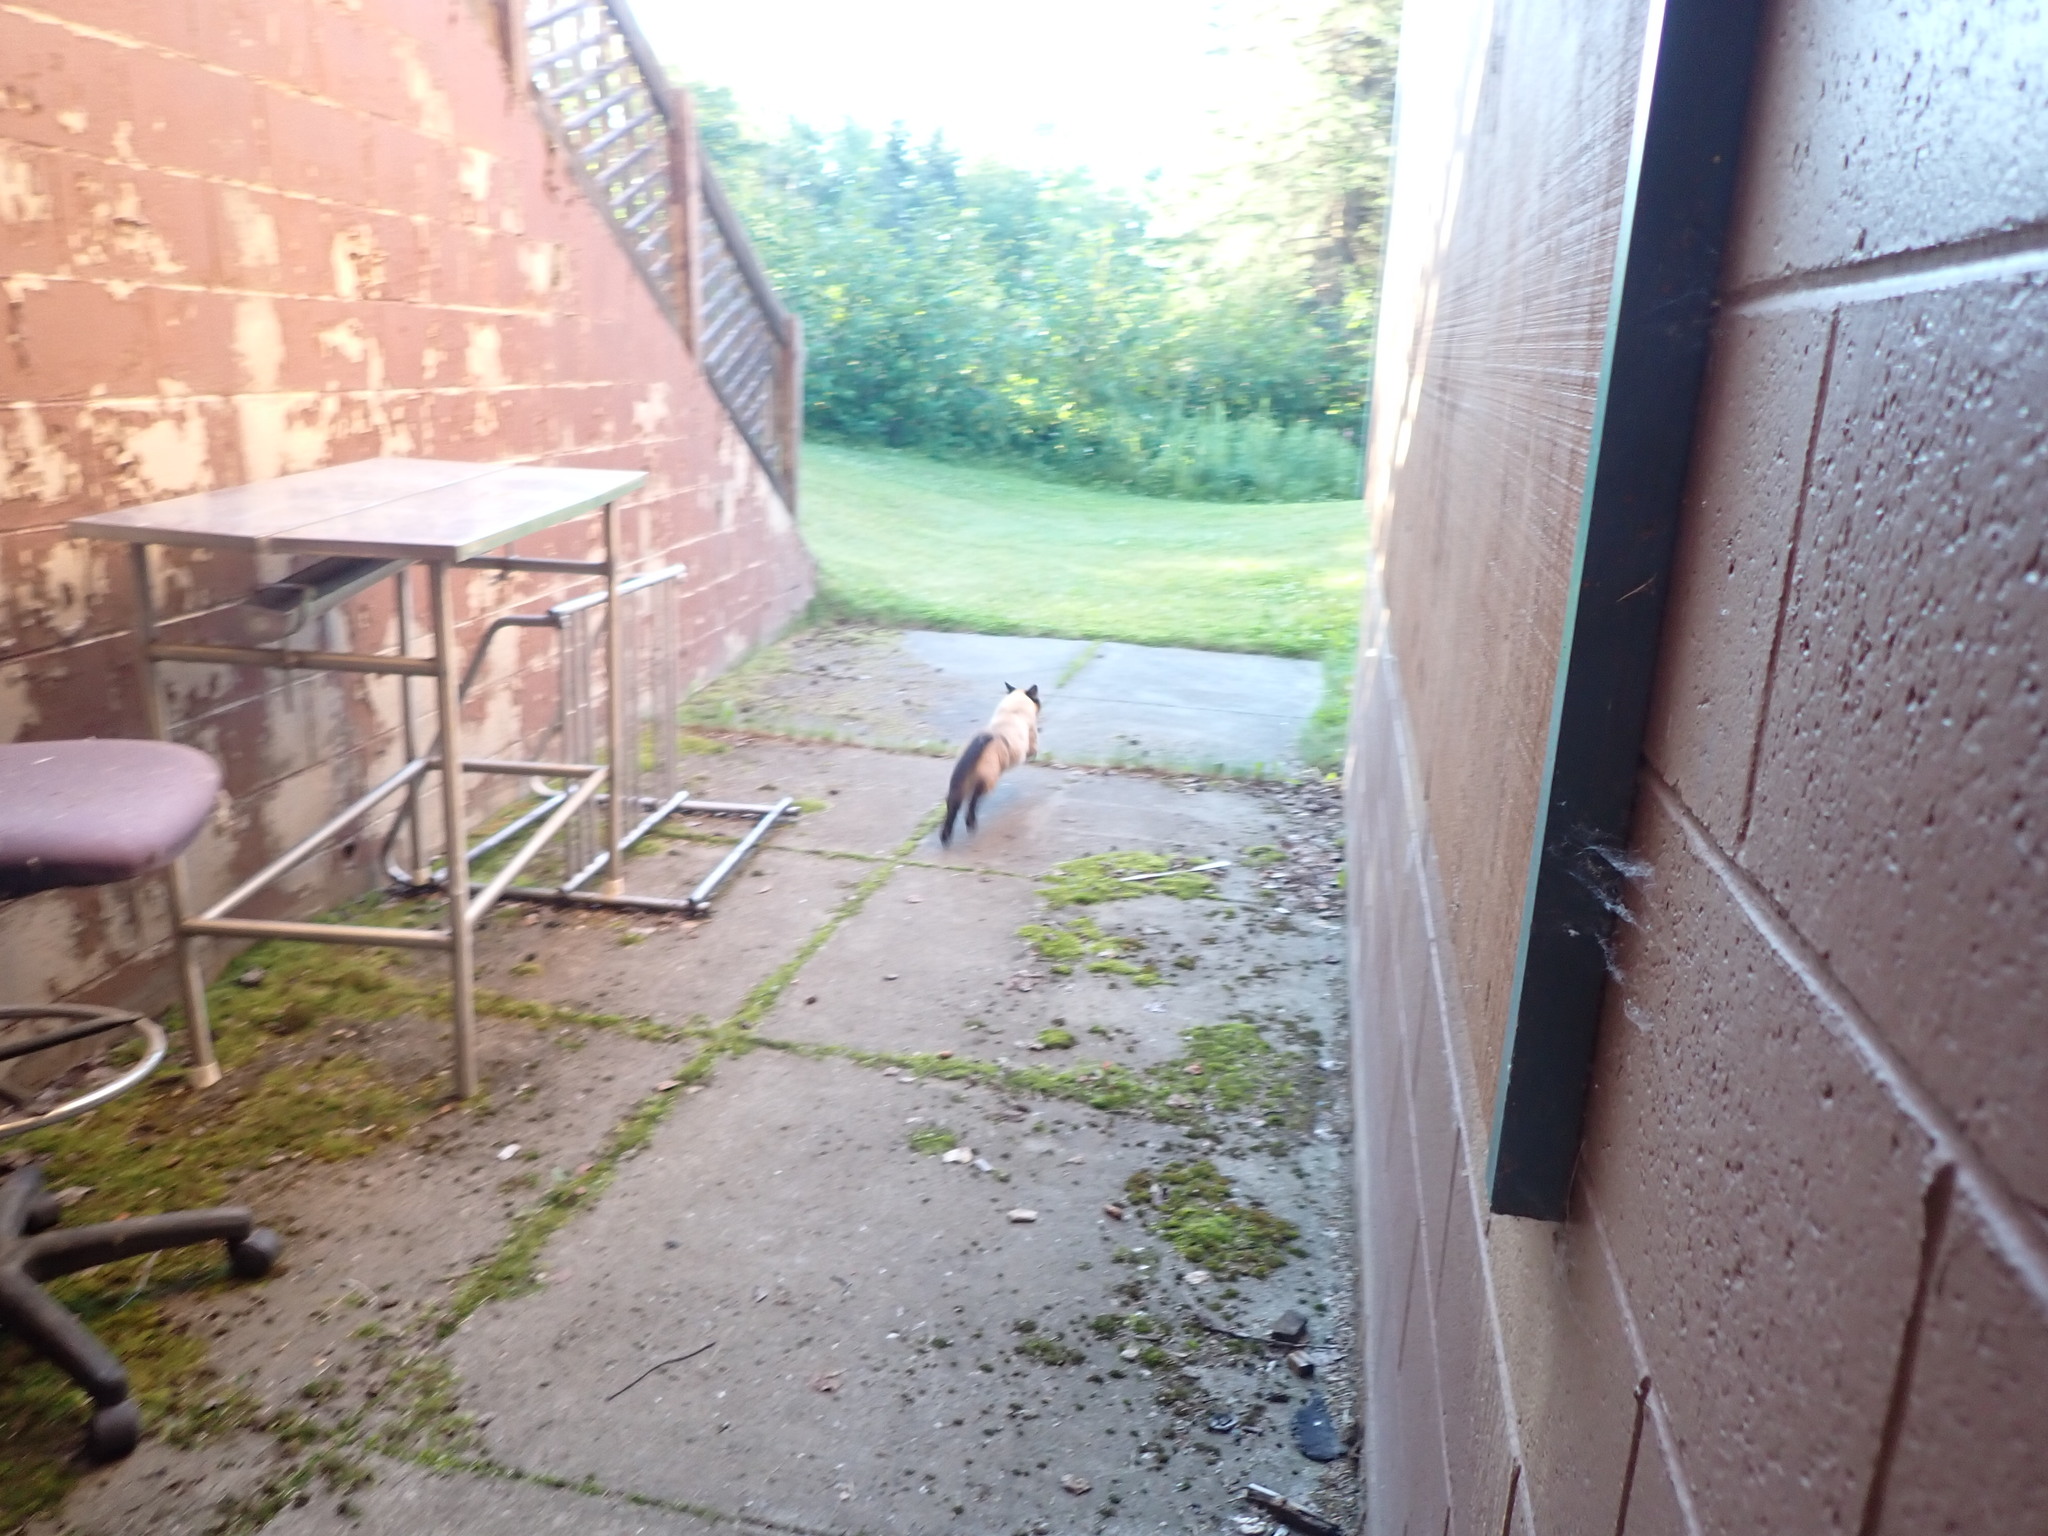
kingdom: Animalia
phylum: Chordata
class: Mammalia
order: Carnivora
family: Felidae
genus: Felis
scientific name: Felis catus
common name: Domestic cat
